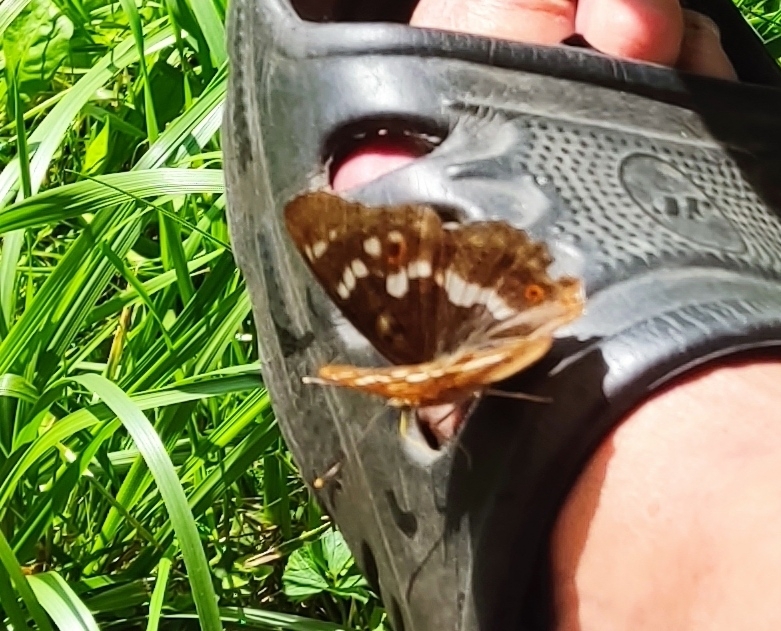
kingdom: Animalia
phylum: Arthropoda
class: Insecta
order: Lepidoptera
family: Nymphalidae
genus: Apatura
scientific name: Apatura ilia
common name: Lesser purple emperor
